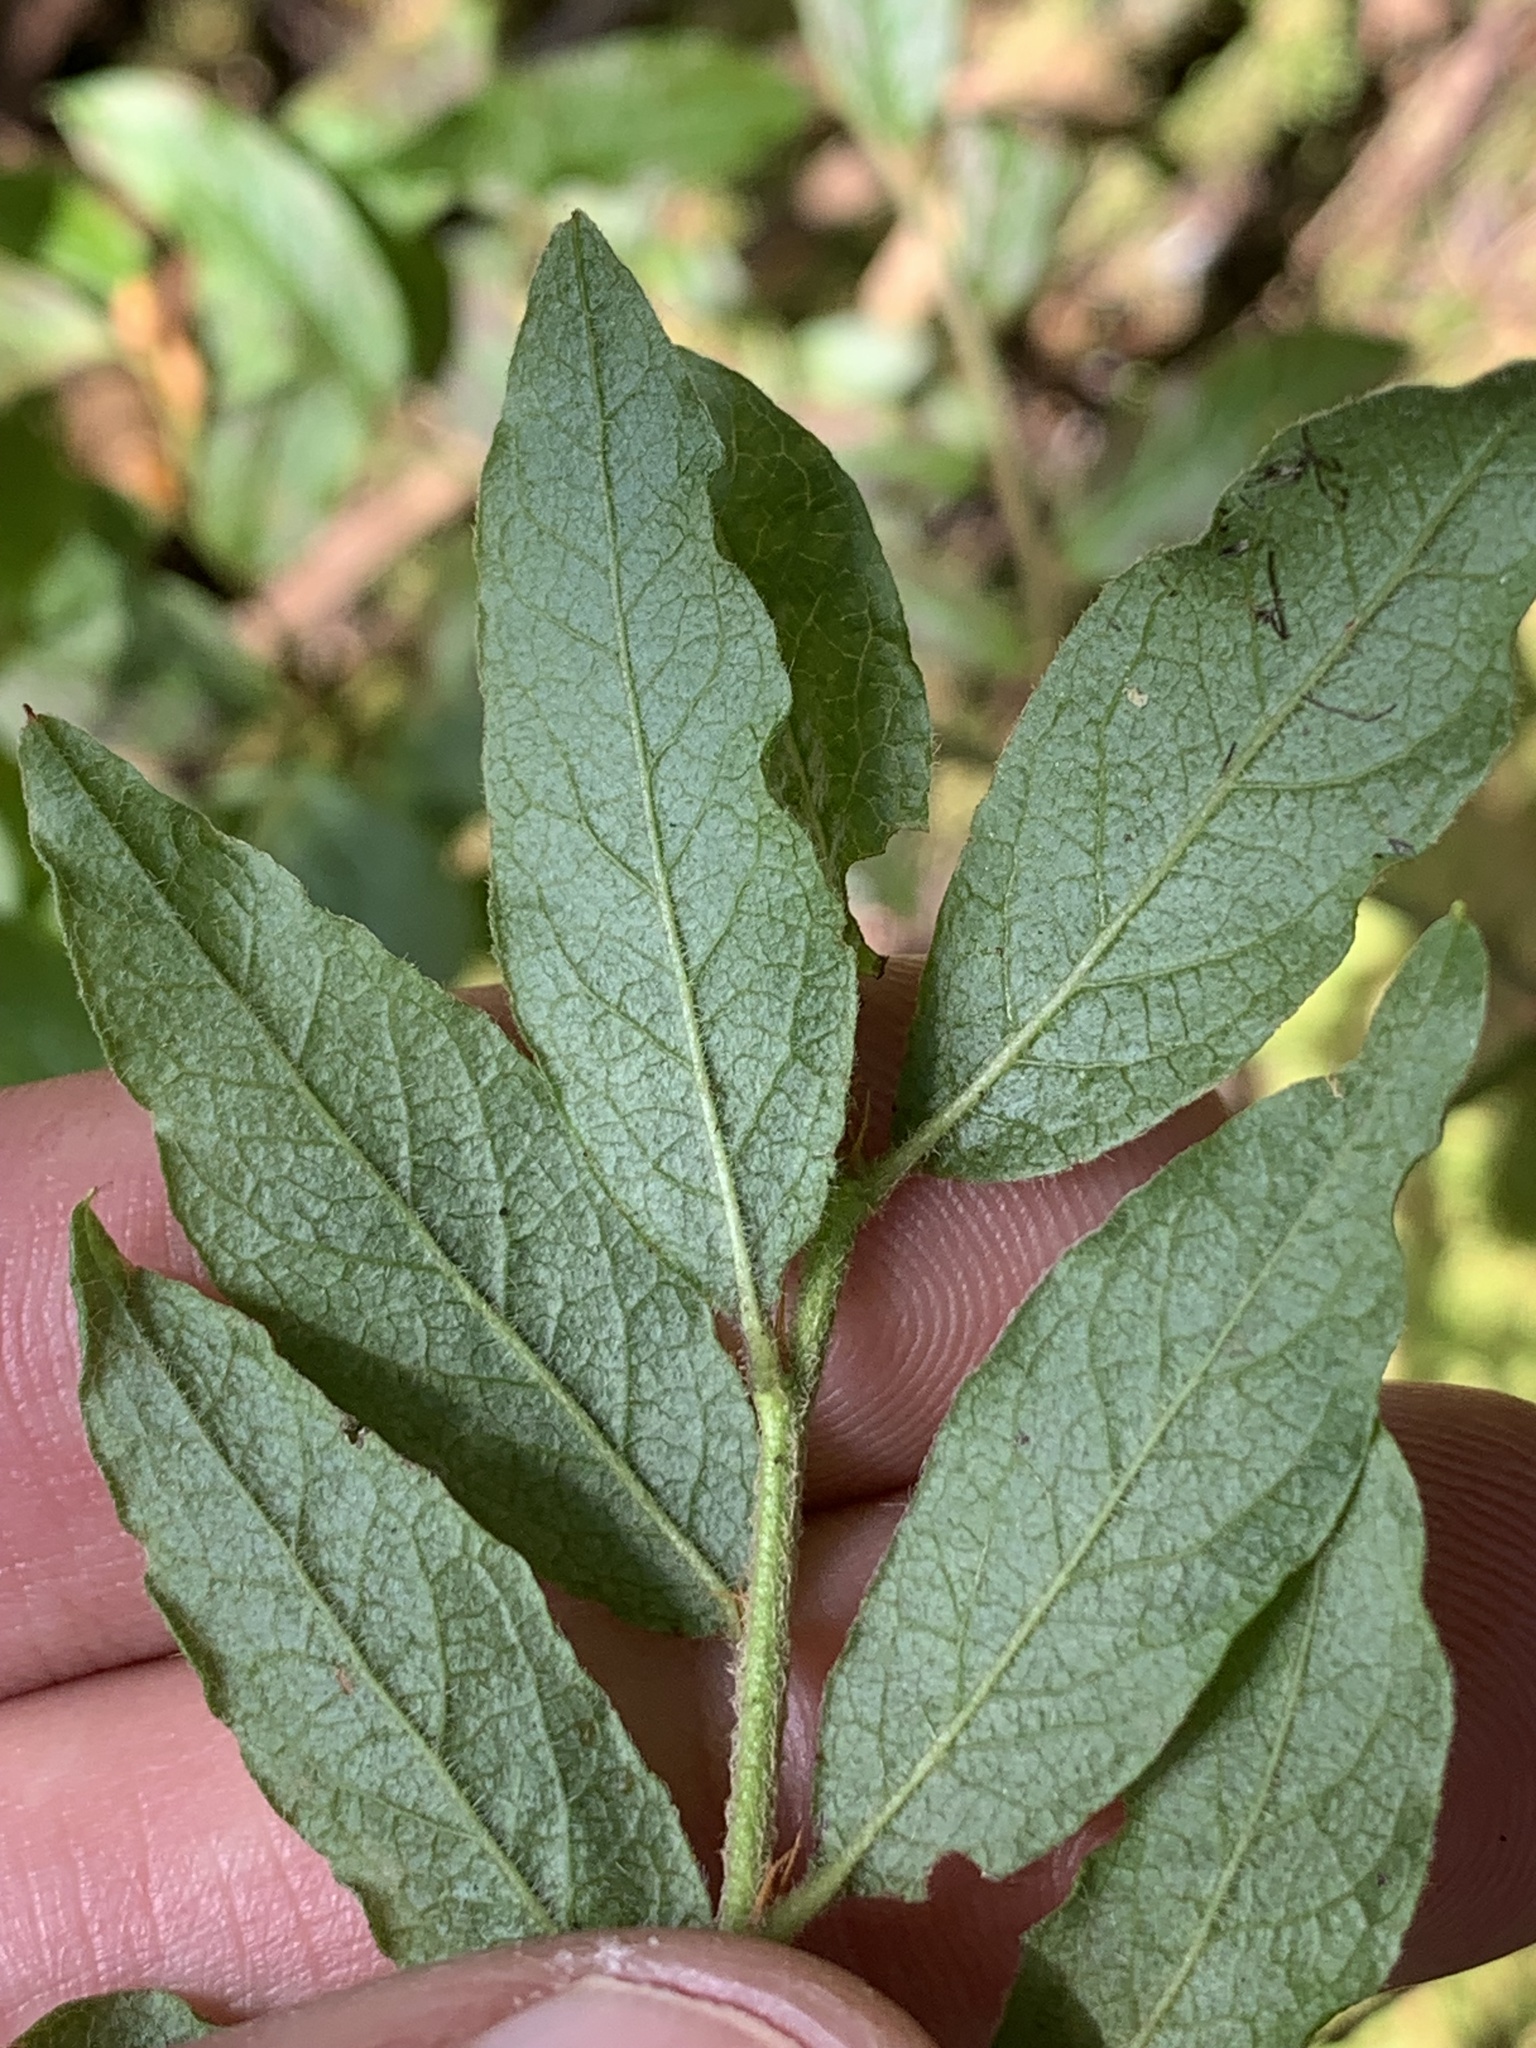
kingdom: Plantae
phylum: Tracheophyta
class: Magnoliopsida
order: Ericales
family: Ericaceae
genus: Vaccinium
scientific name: Vaccinium myrtilloides
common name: Canada blueberry
